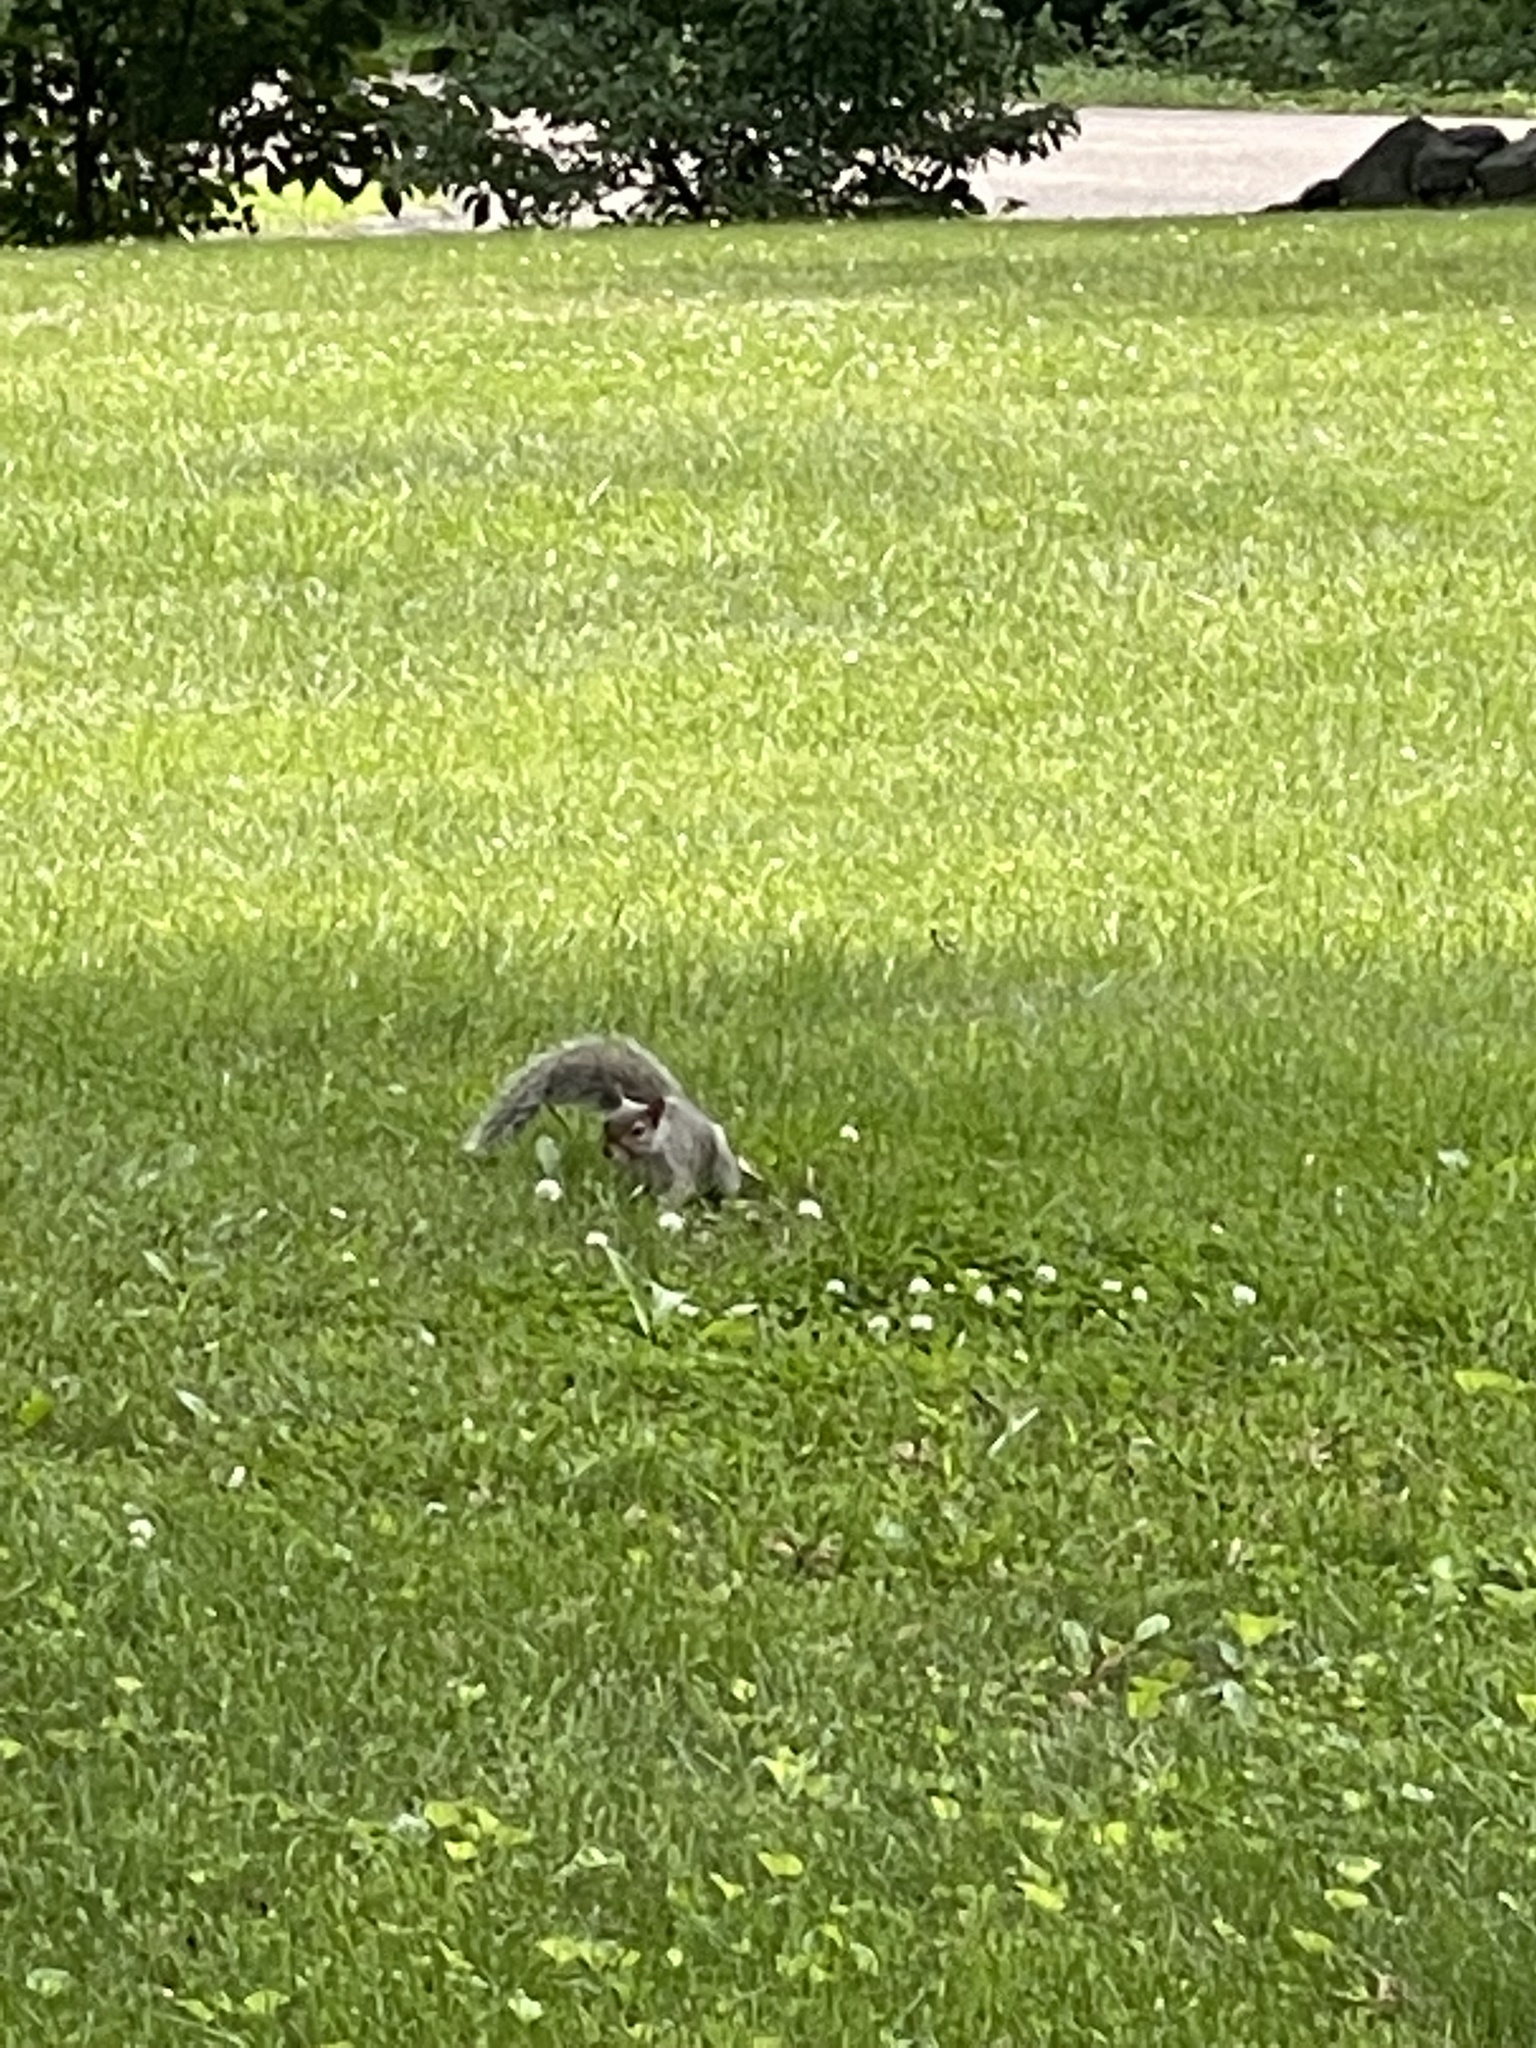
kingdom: Animalia
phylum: Chordata
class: Mammalia
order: Rodentia
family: Sciuridae
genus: Sciurus
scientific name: Sciurus carolinensis
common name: Eastern gray squirrel
